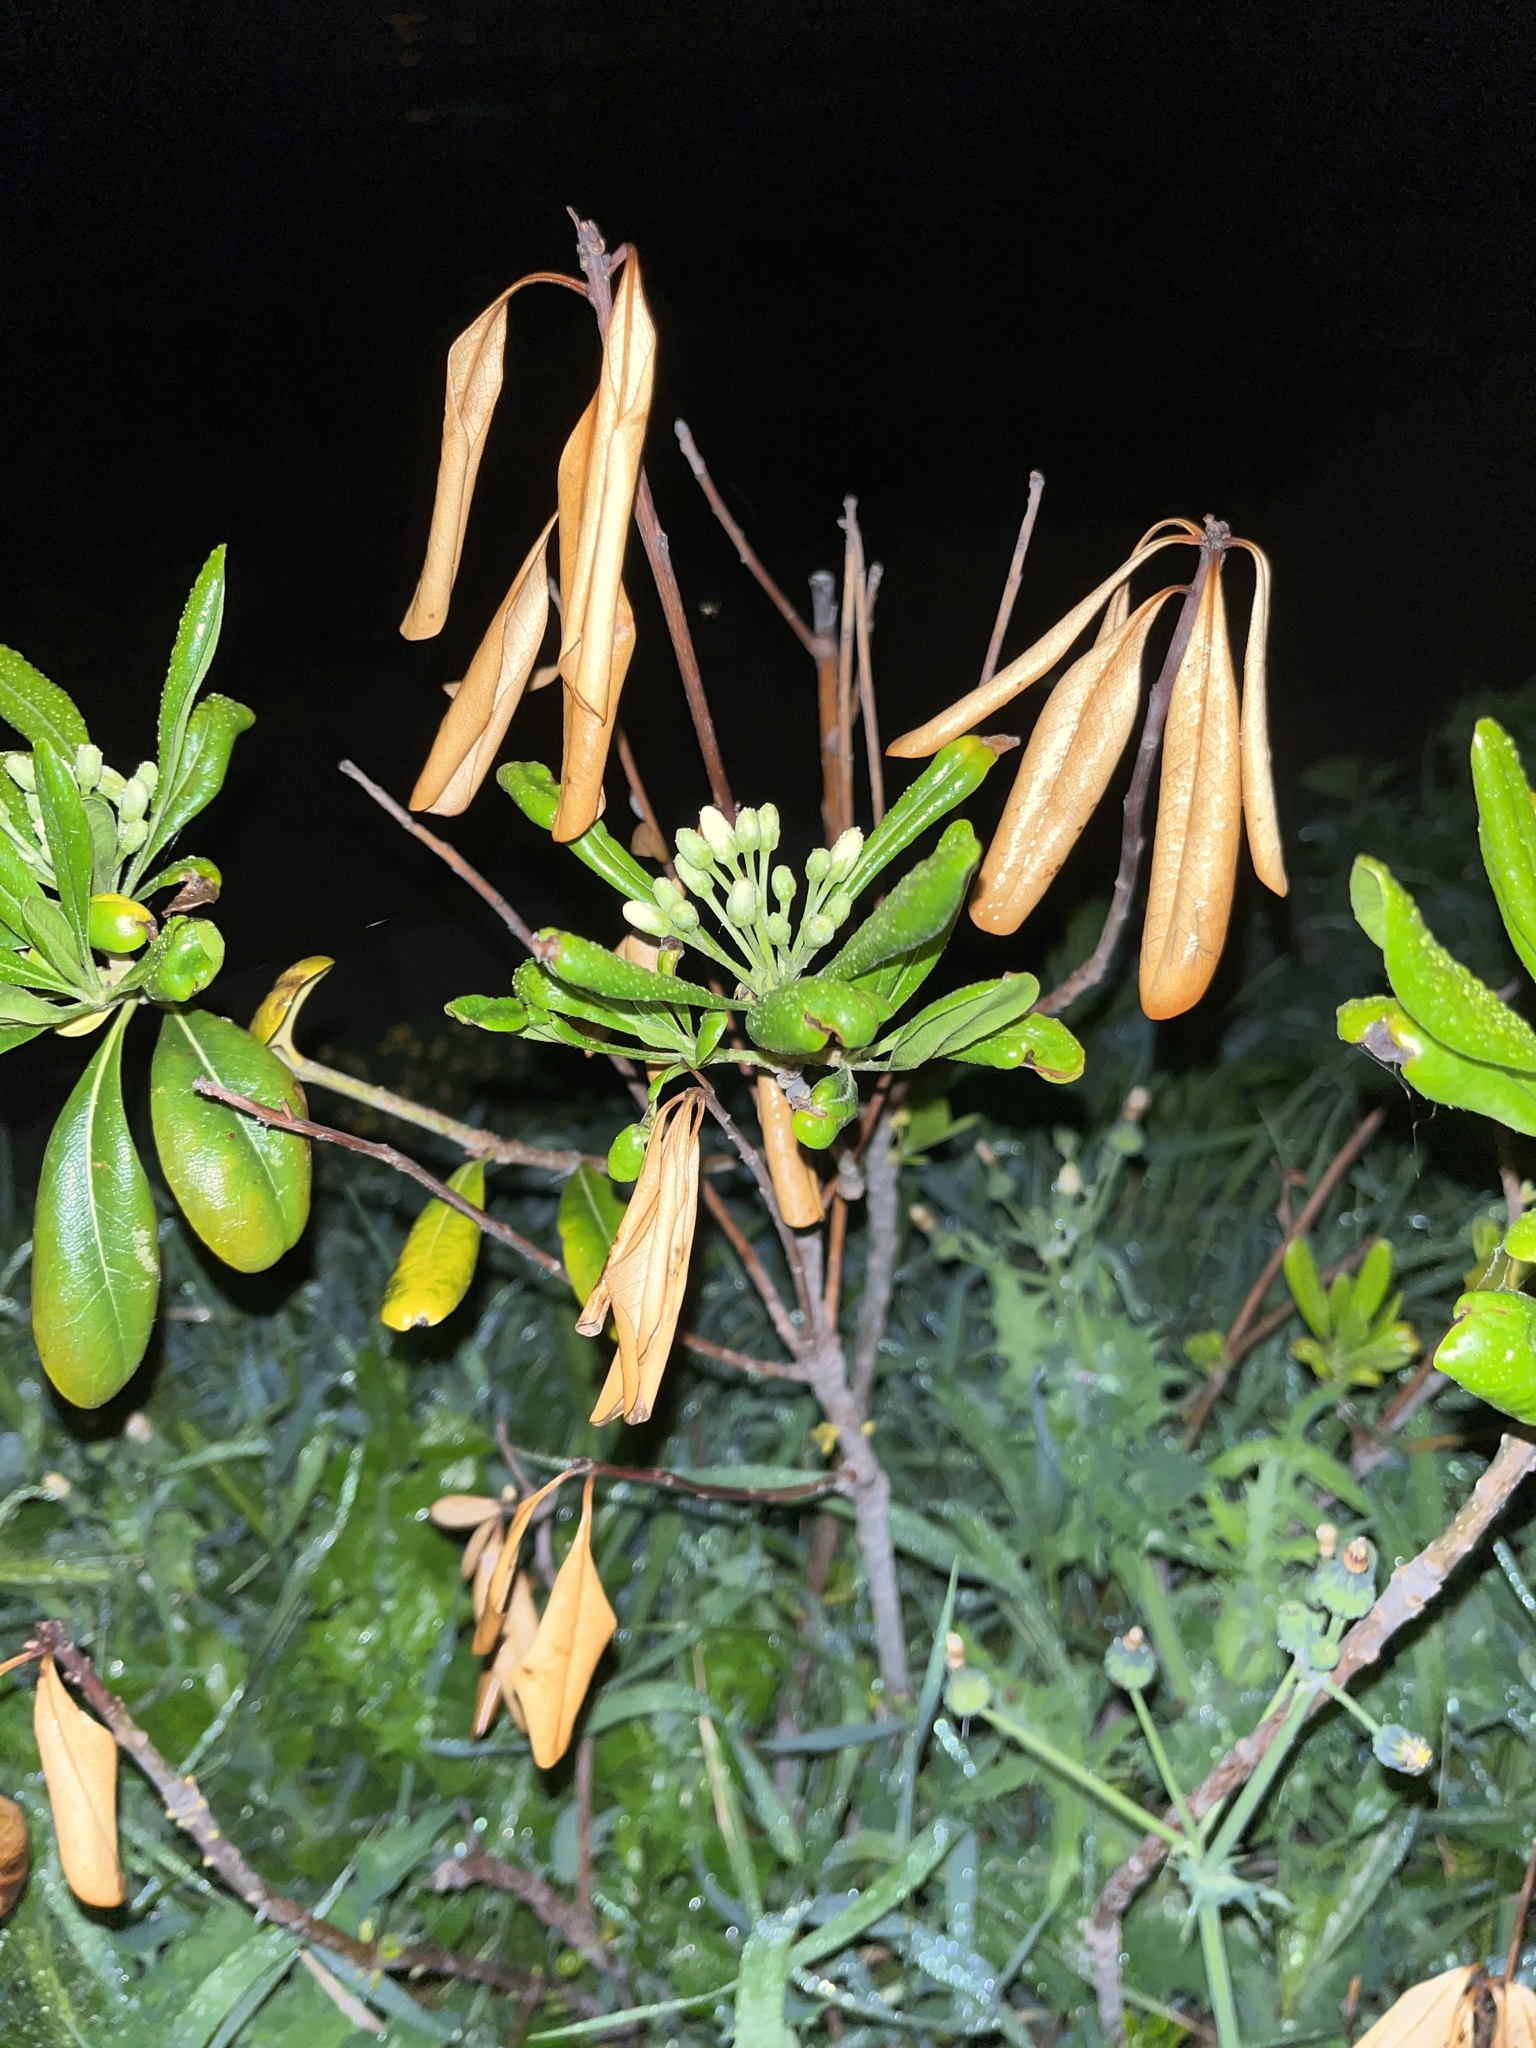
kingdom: Plantae
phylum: Tracheophyta
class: Magnoliopsida
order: Apiales
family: Pittosporaceae
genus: Pittosporum
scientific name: Pittosporum tobira
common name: Japanese cheesewood
